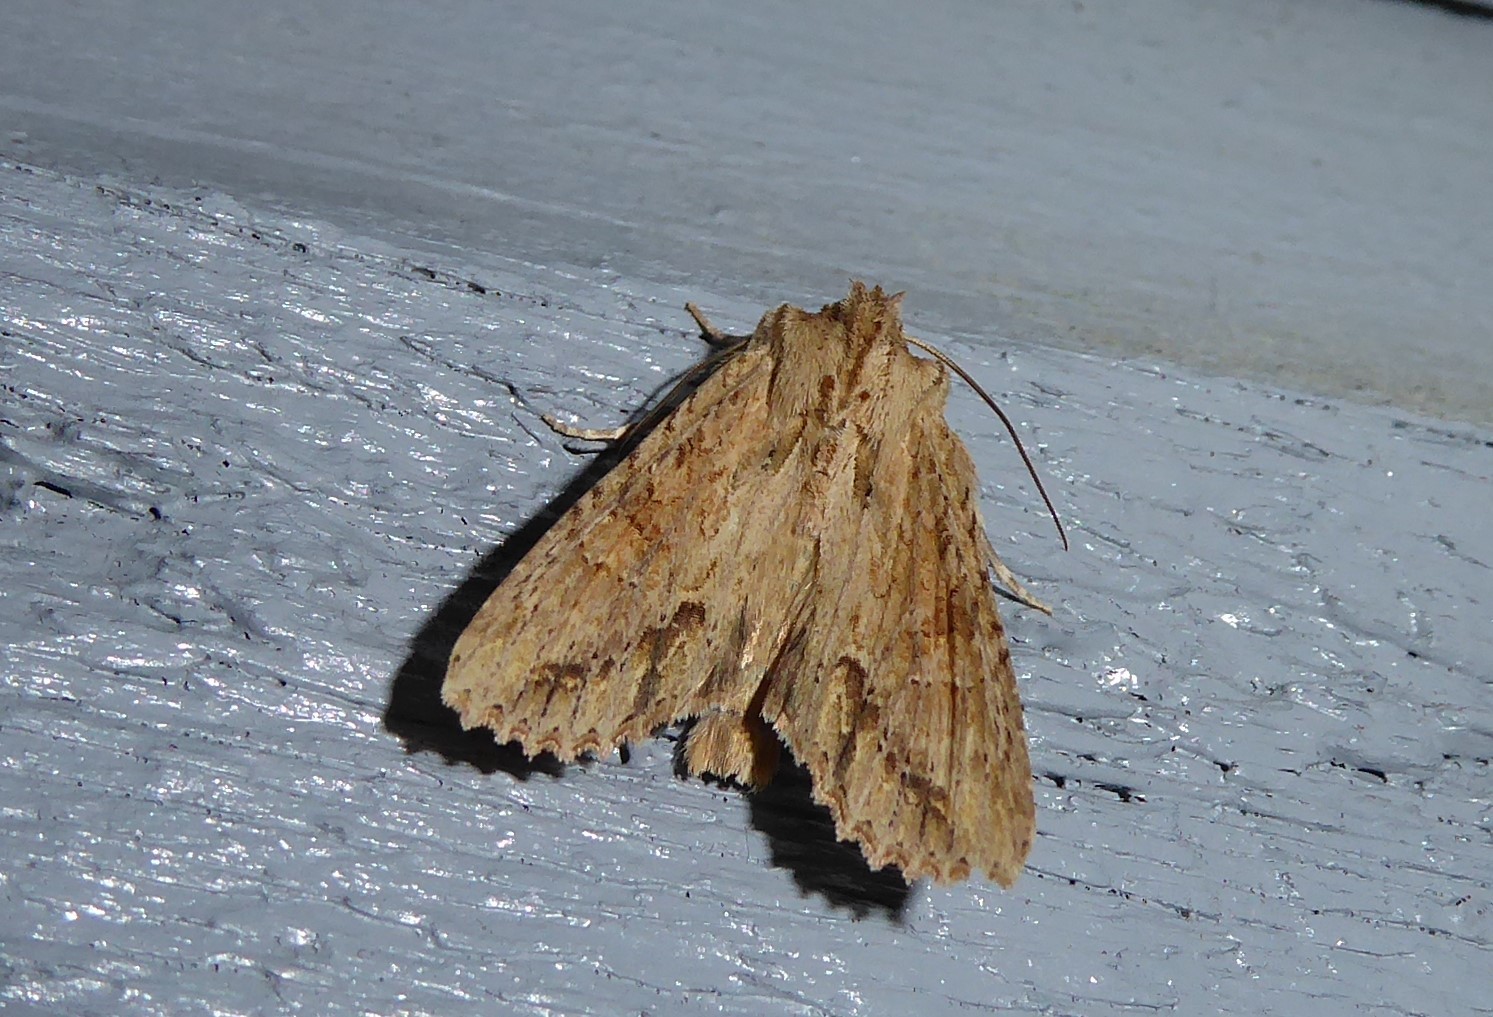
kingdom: Animalia
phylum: Arthropoda
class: Insecta
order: Lepidoptera
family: Noctuidae
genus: Ichneutica
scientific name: Ichneutica mollis
